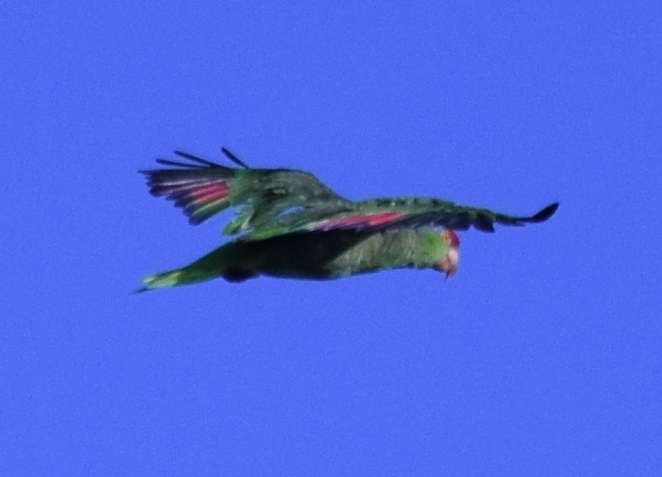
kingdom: Animalia
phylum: Chordata
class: Aves
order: Psittaciformes
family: Psittacidae
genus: Amazona
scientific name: Amazona viridigenalis
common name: Red-crowned amazon
